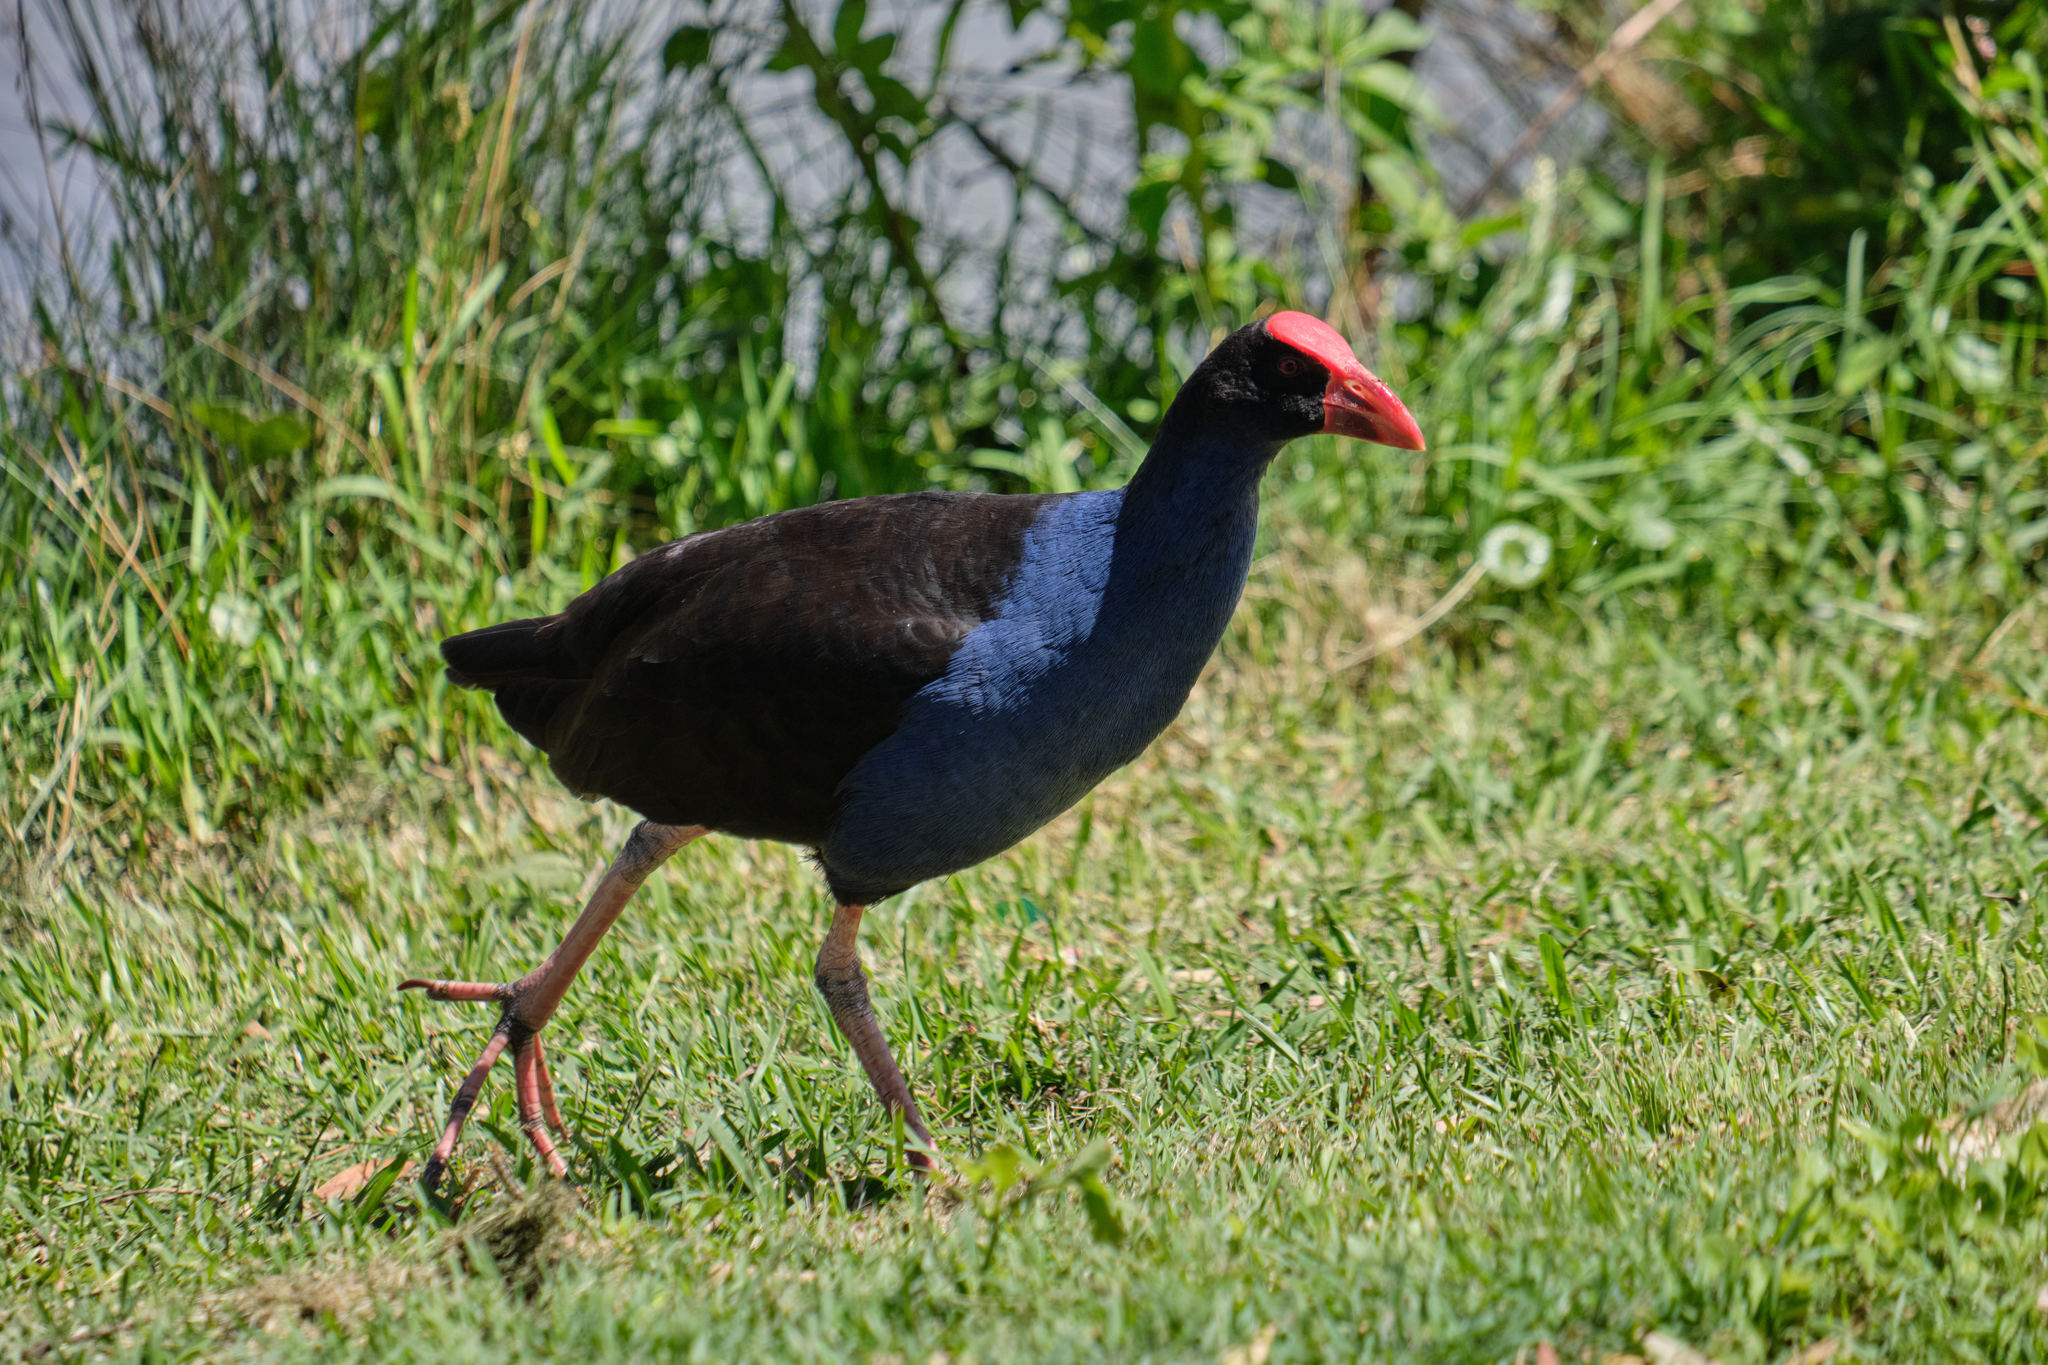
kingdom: Animalia
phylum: Chordata
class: Aves
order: Gruiformes
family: Rallidae
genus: Porphyrio
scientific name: Porphyrio melanotus
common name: Australasian swamphen
